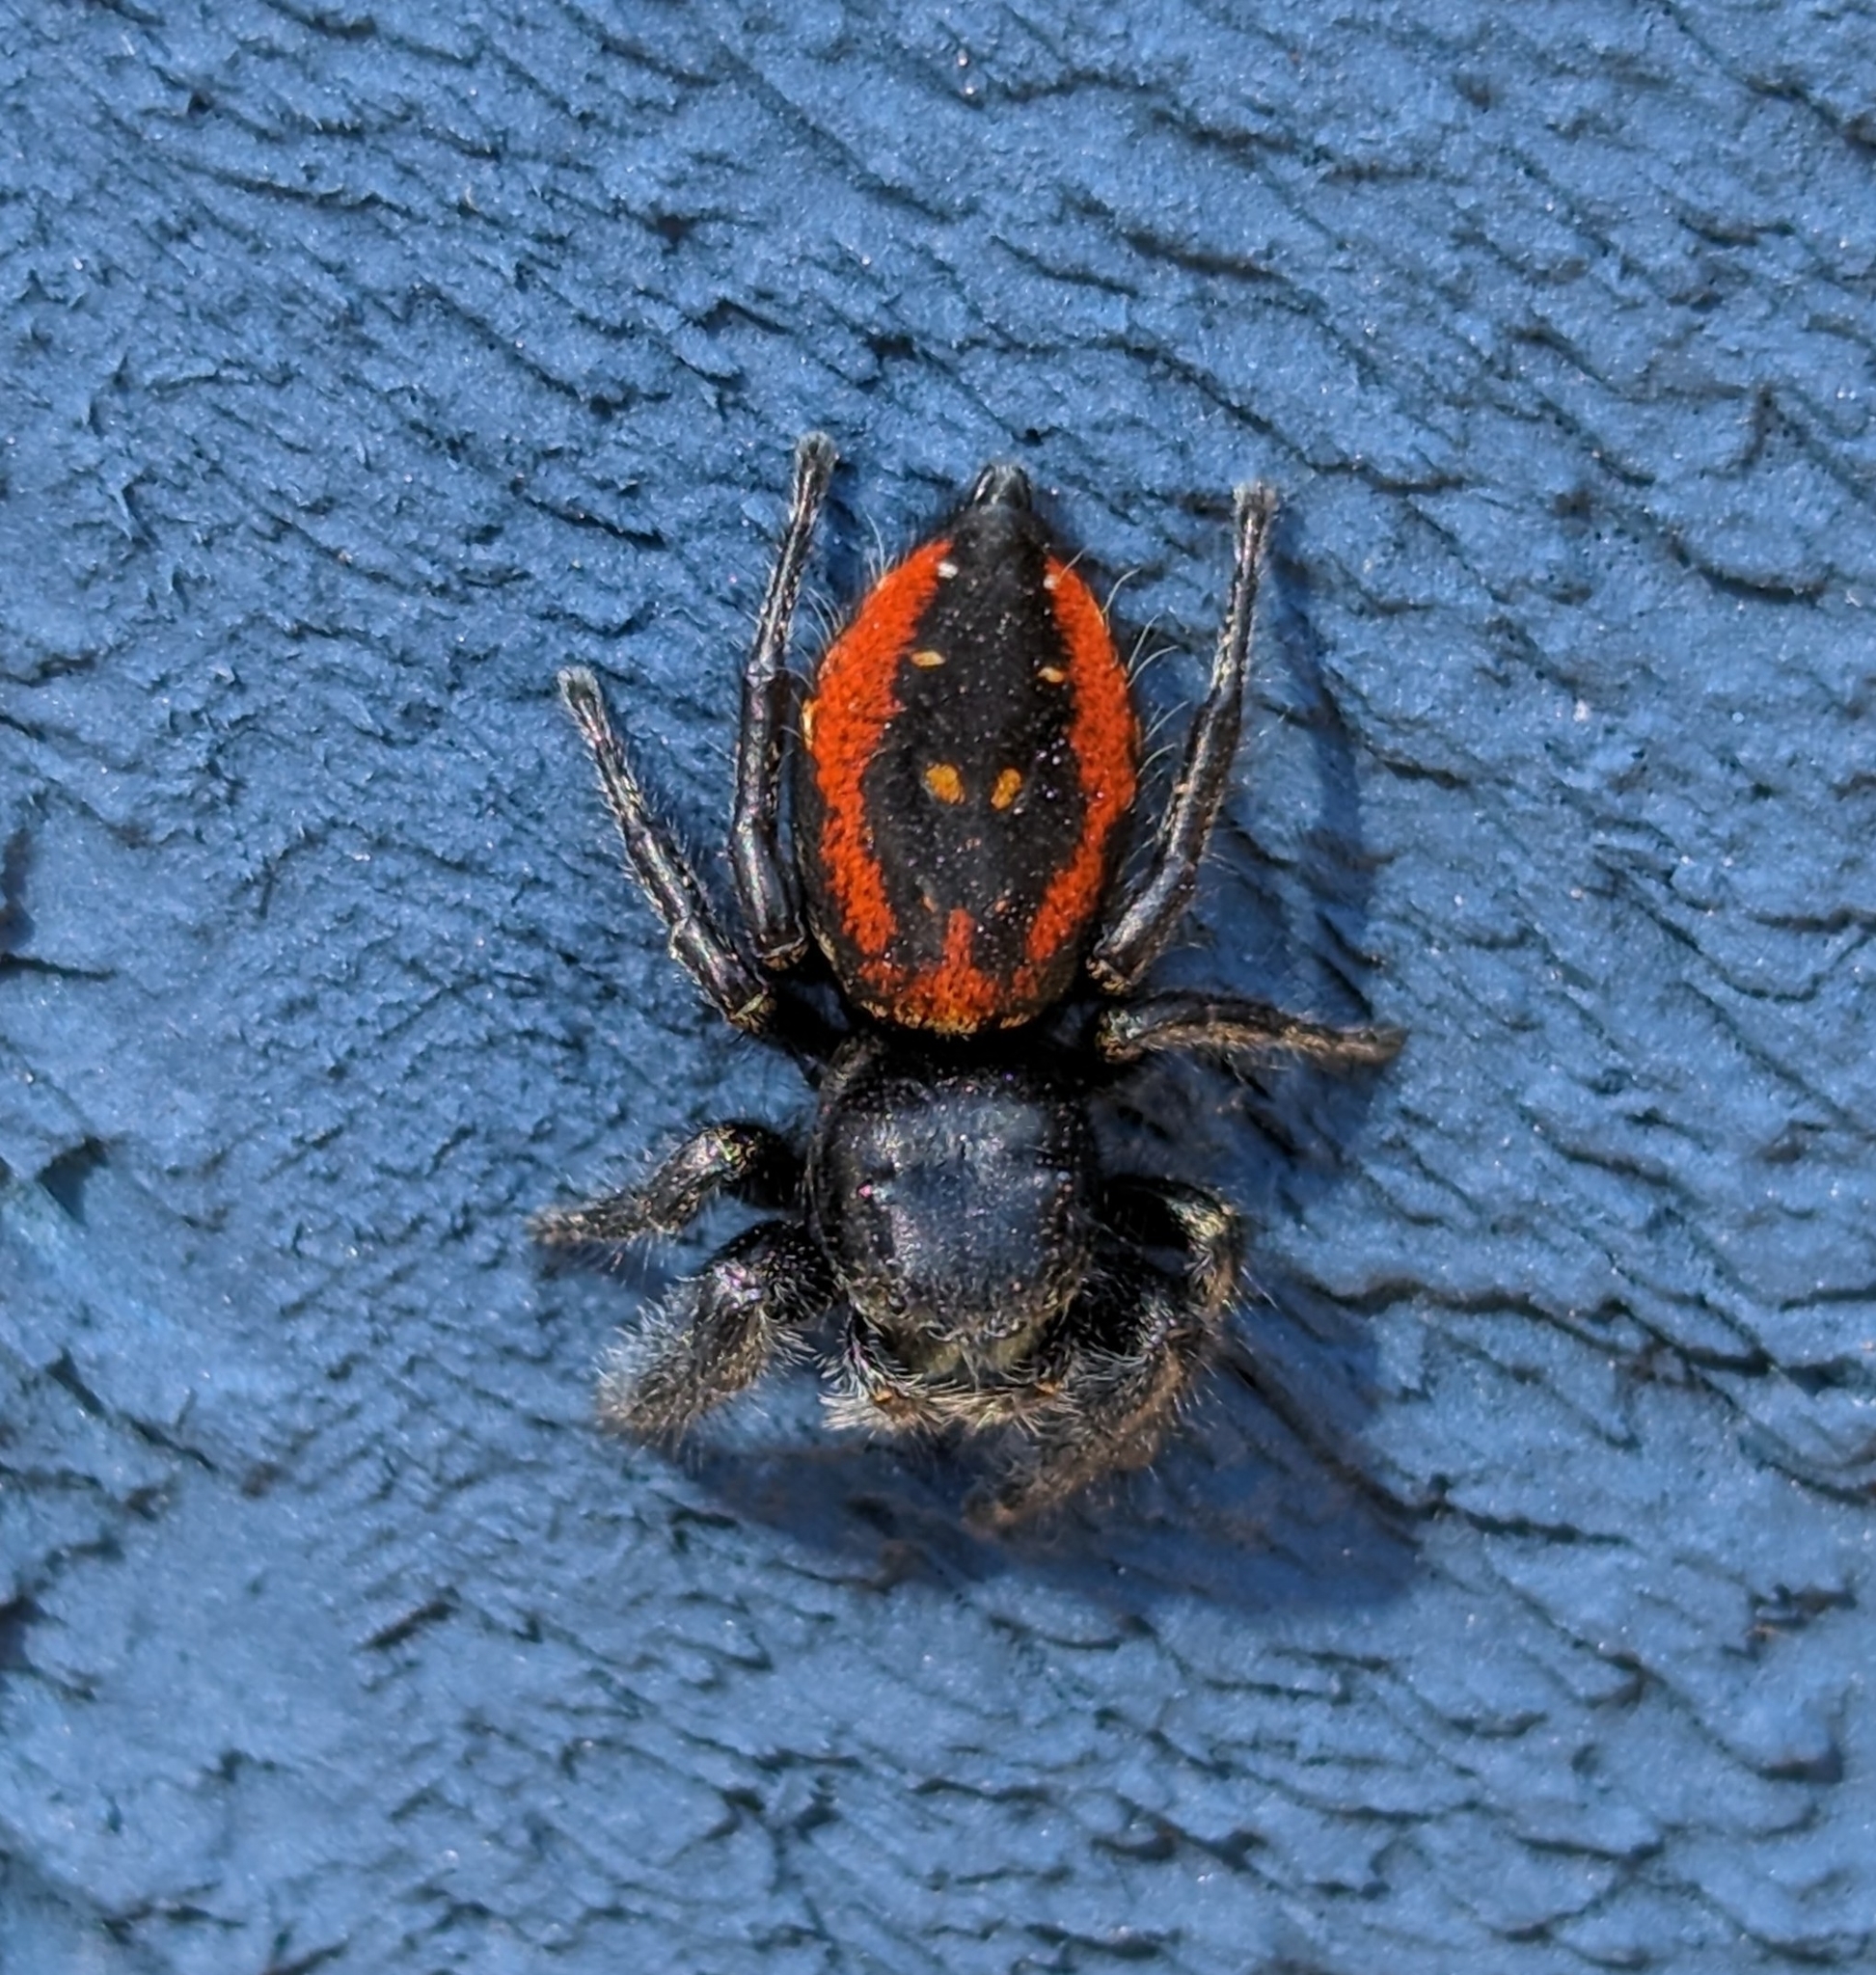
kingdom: Animalia
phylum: Arthropoda
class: Arachnida
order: Araneae
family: Salticidae
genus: Phidippus
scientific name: Phidippus johnsoni
